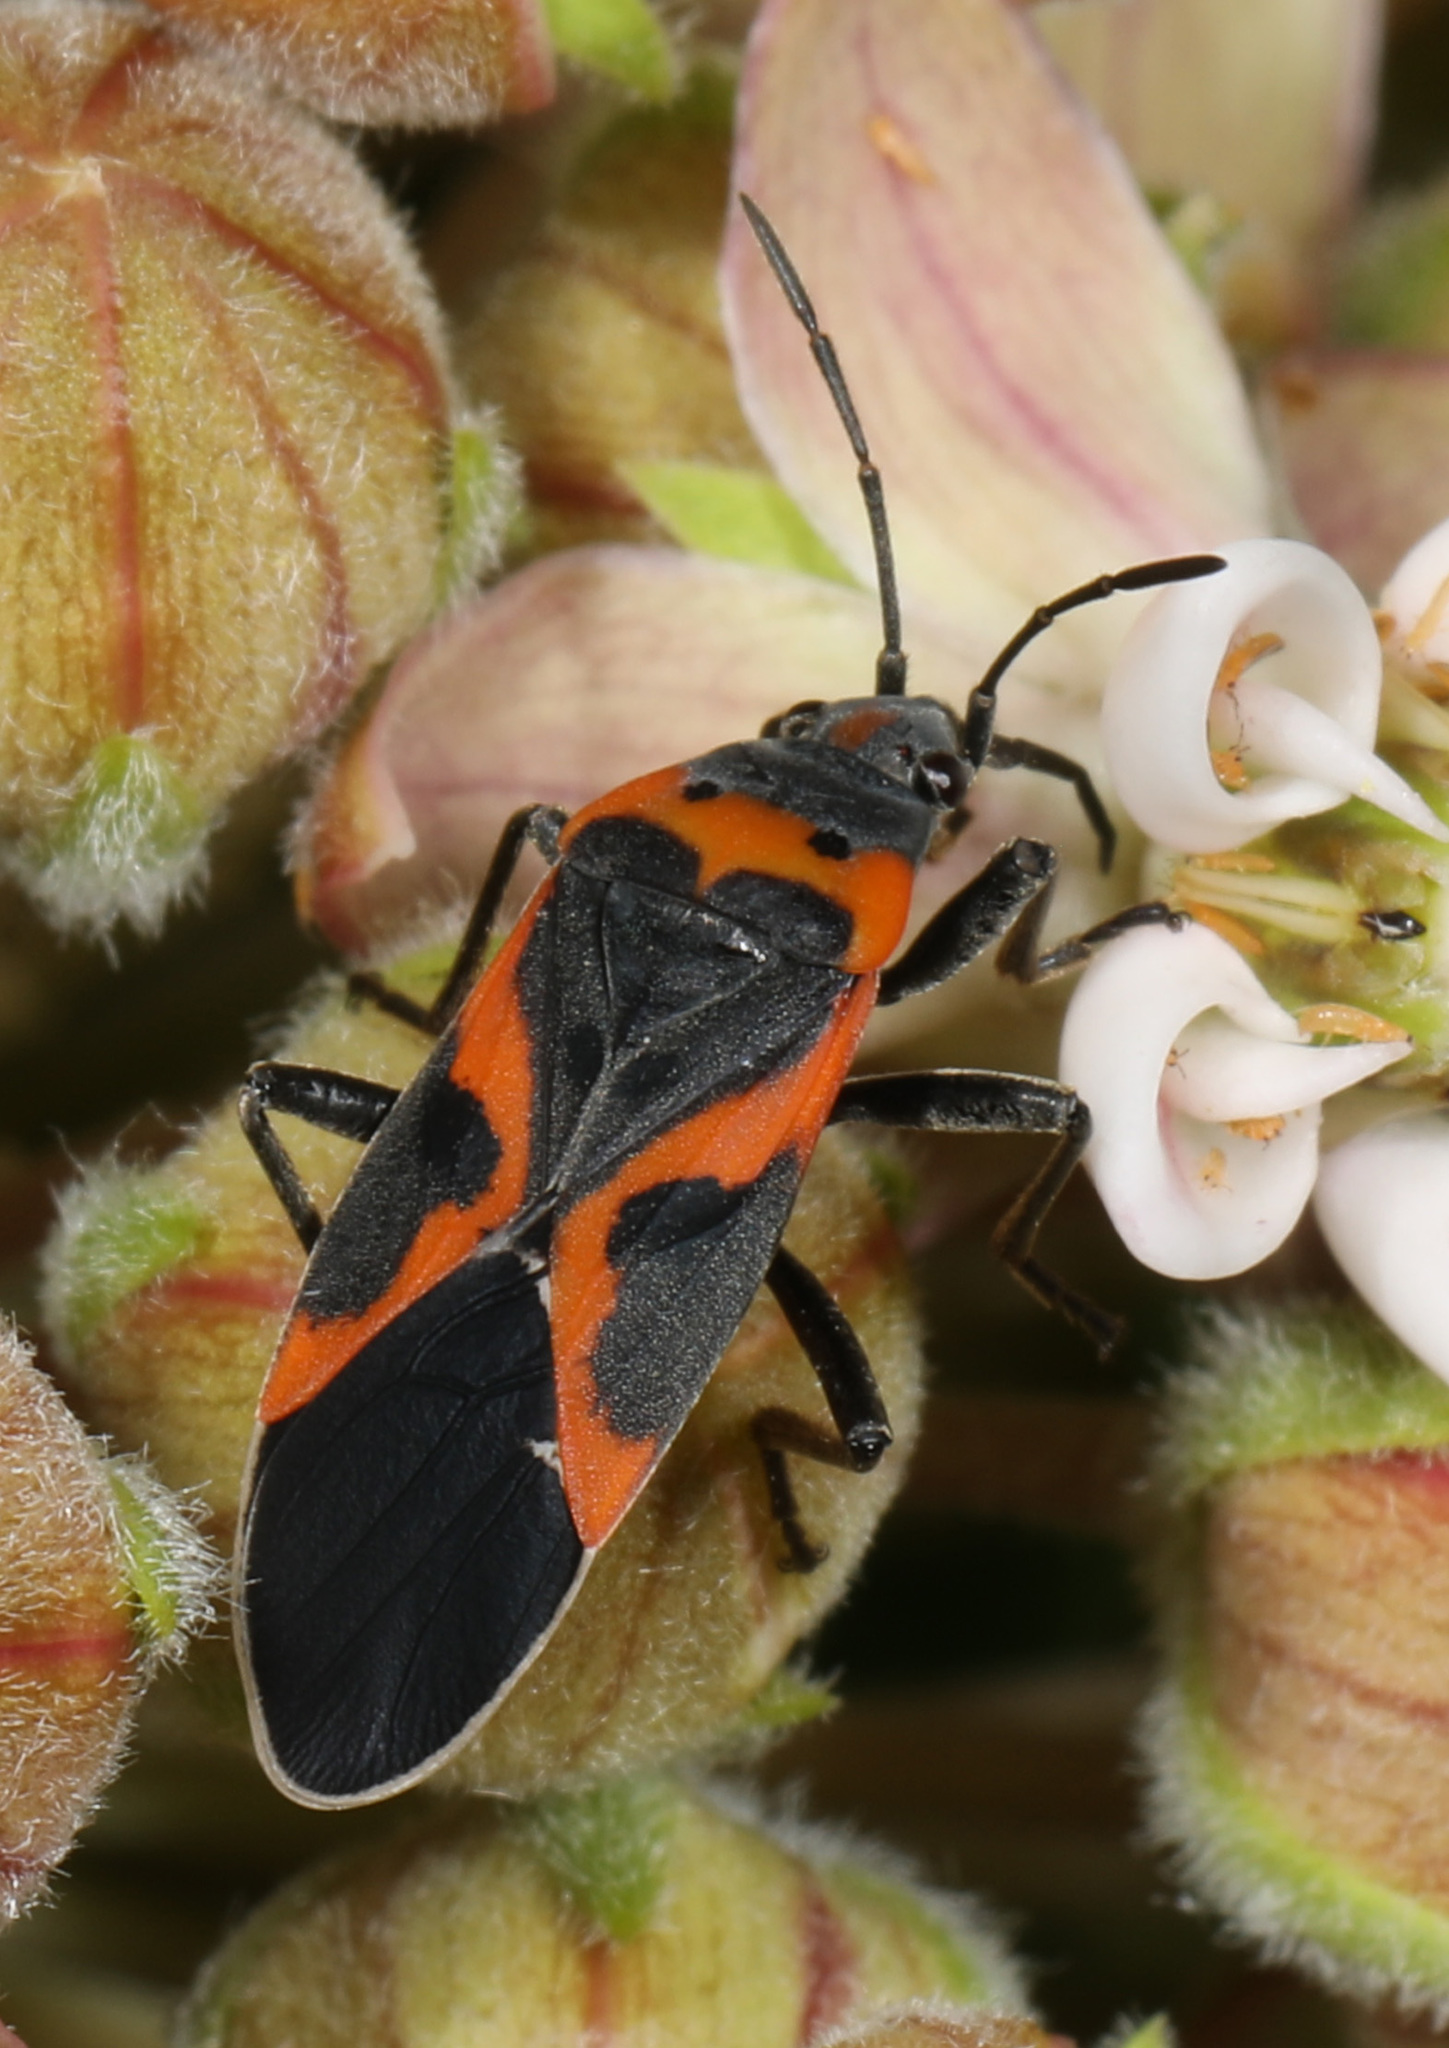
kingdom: Animalia
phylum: Arthropoda
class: Insecta
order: Hemiptera
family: Lygaeidae
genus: Lygaeus
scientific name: Lygaeus kalmii
